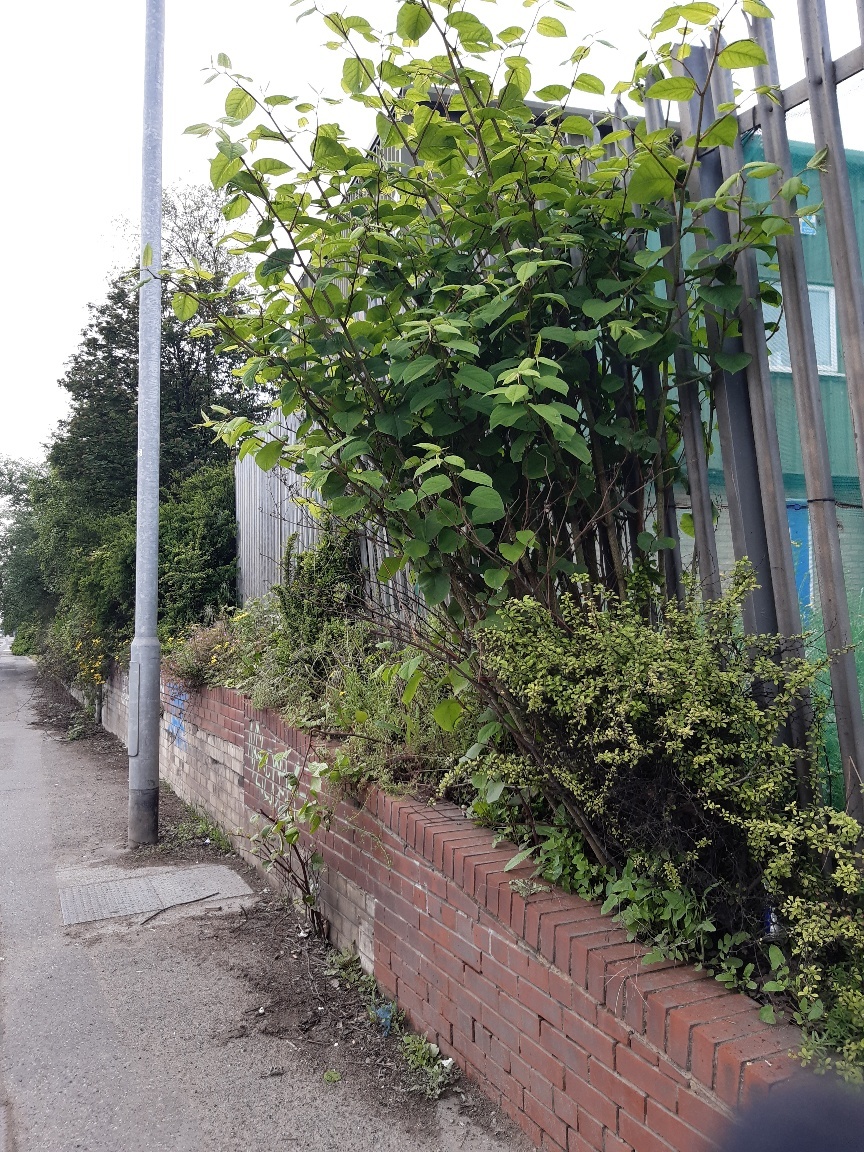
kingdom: Plantae
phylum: Tracheophyta
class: Magnoliopsida
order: Caryophyllales
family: Polygonaceae
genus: Reynoutria
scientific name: Reynoutria japonica
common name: Japanese knotweed
